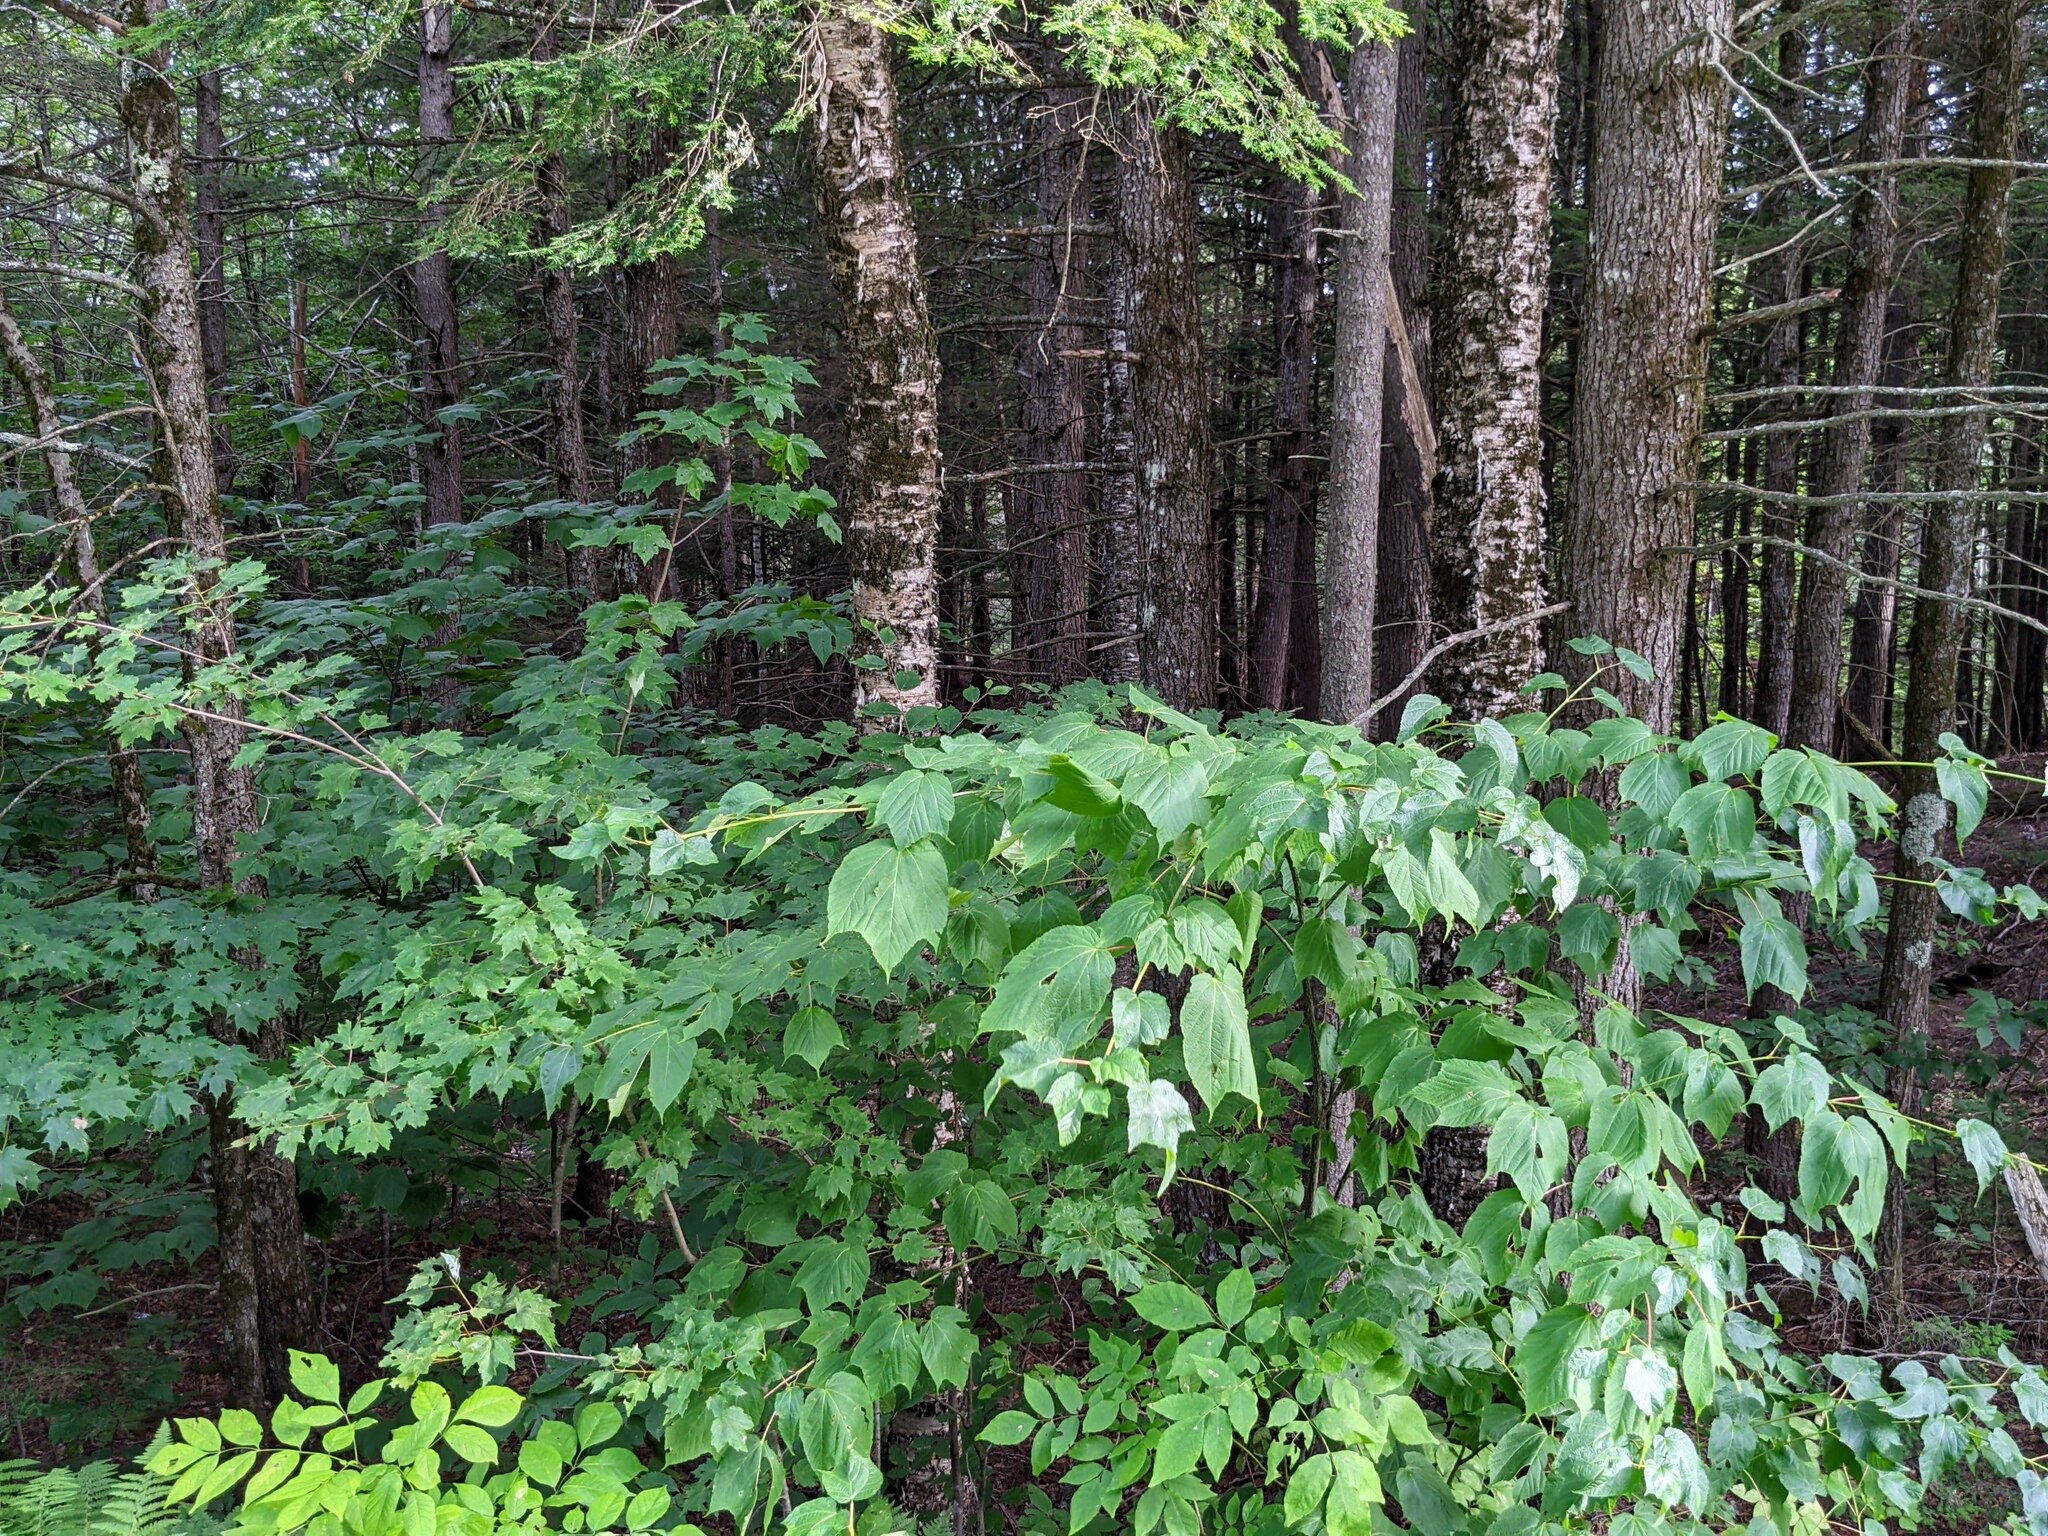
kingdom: Plantae
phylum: Tracheophyta
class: Magnoliopsida
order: Sapindales
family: Sapindaceae
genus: Acer
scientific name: Acer pensylvanicum
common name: Moosewood
